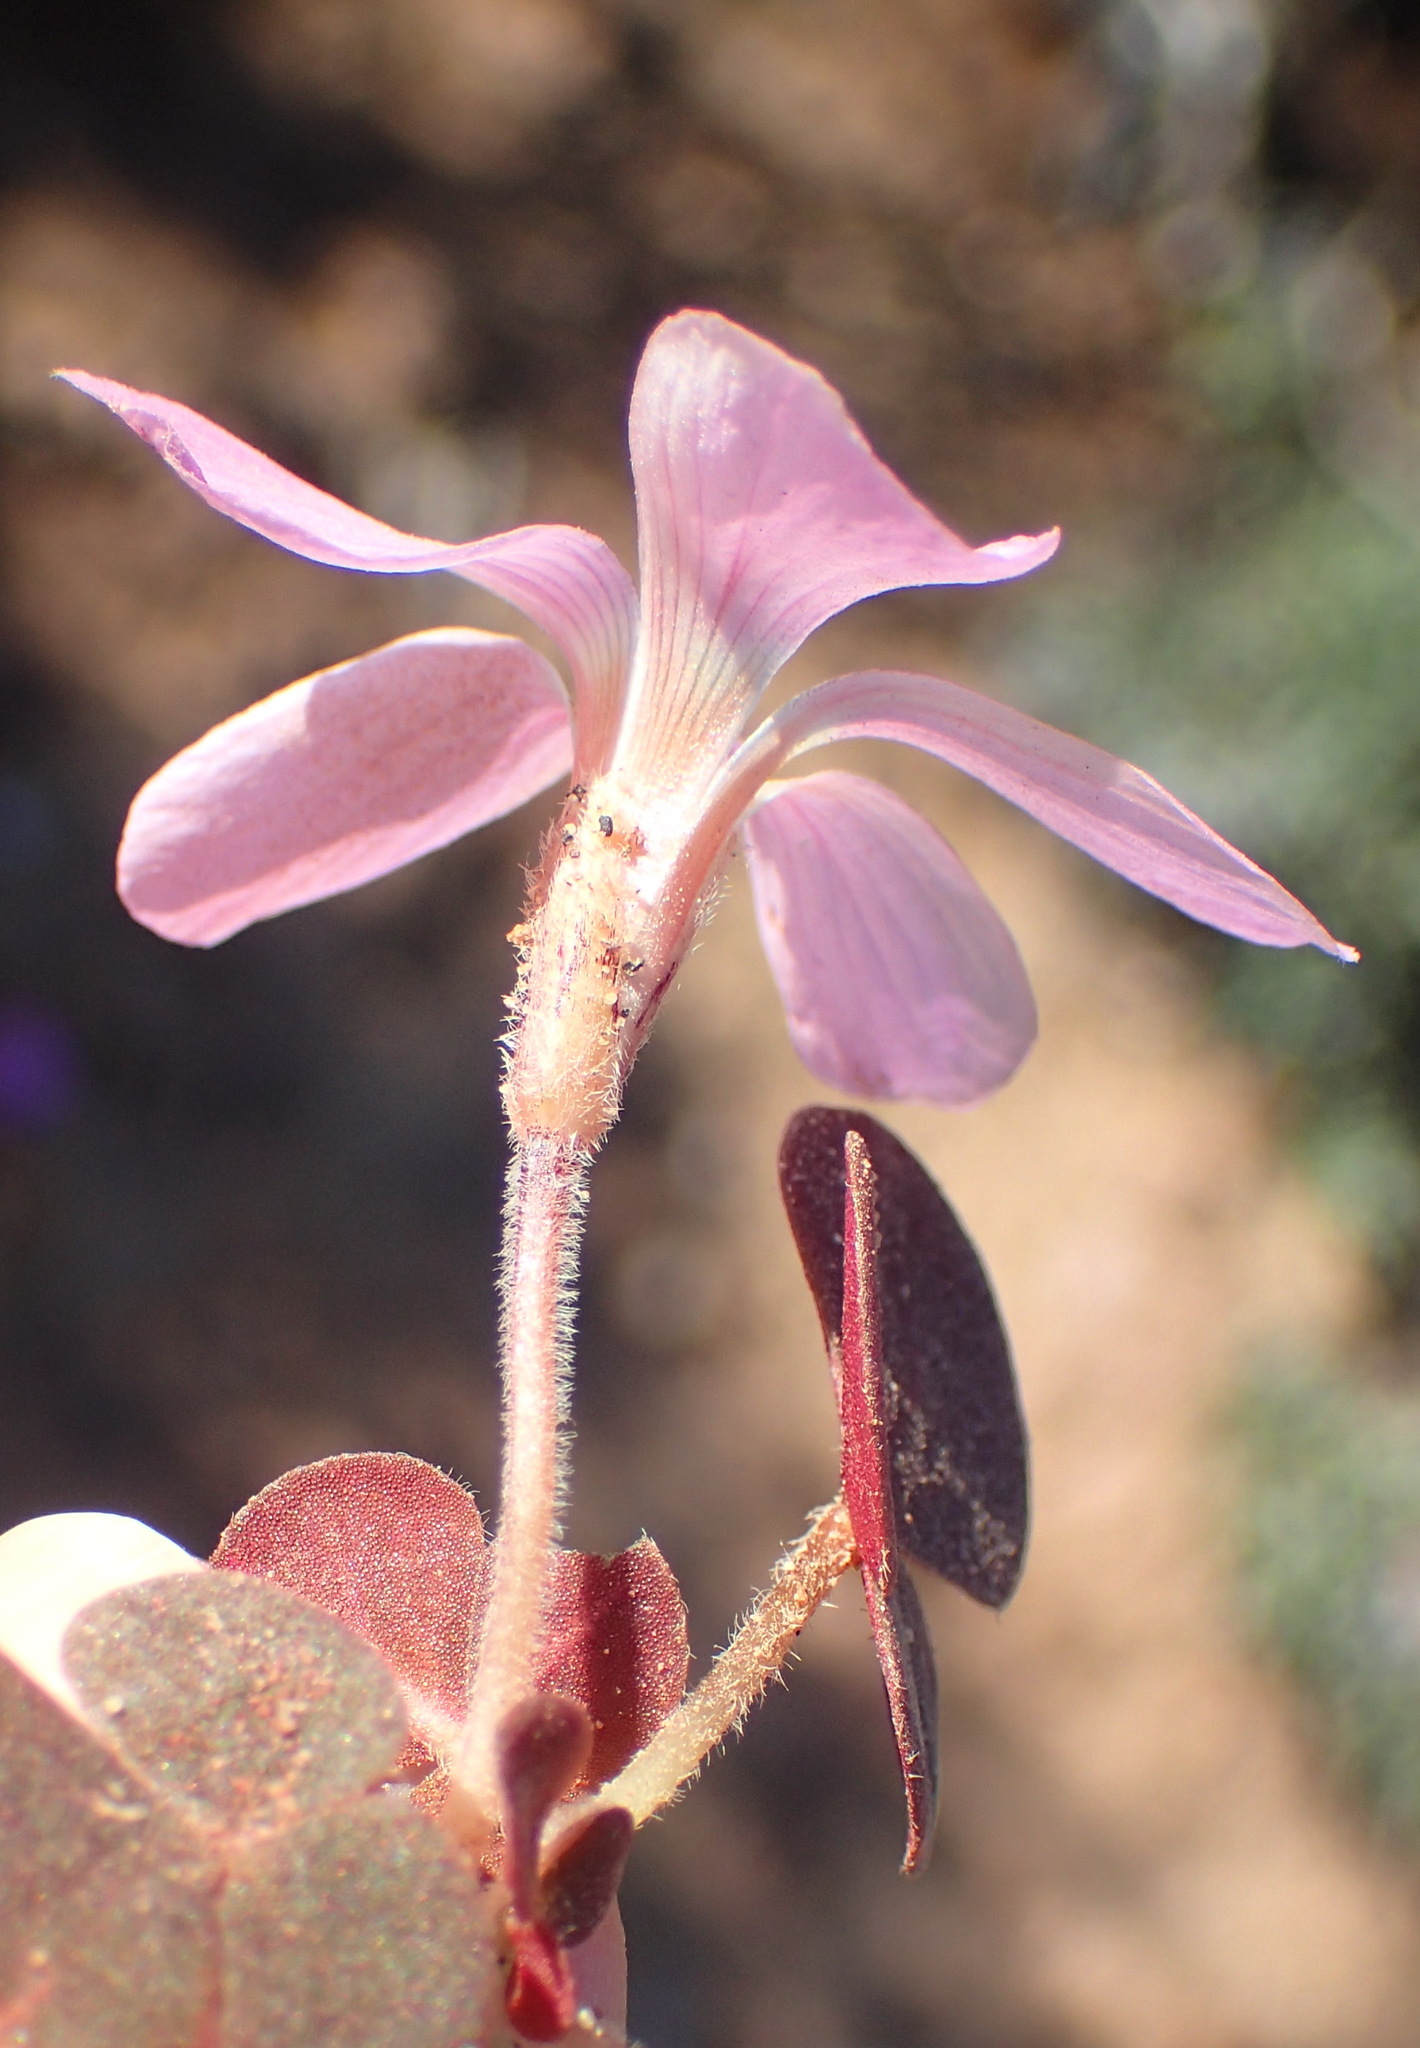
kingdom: Plantae
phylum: Tracheophyta
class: Magnoliopsida
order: Oxalidales
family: Oxalidaceae
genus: Oxalis
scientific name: Oxalis algoensis
